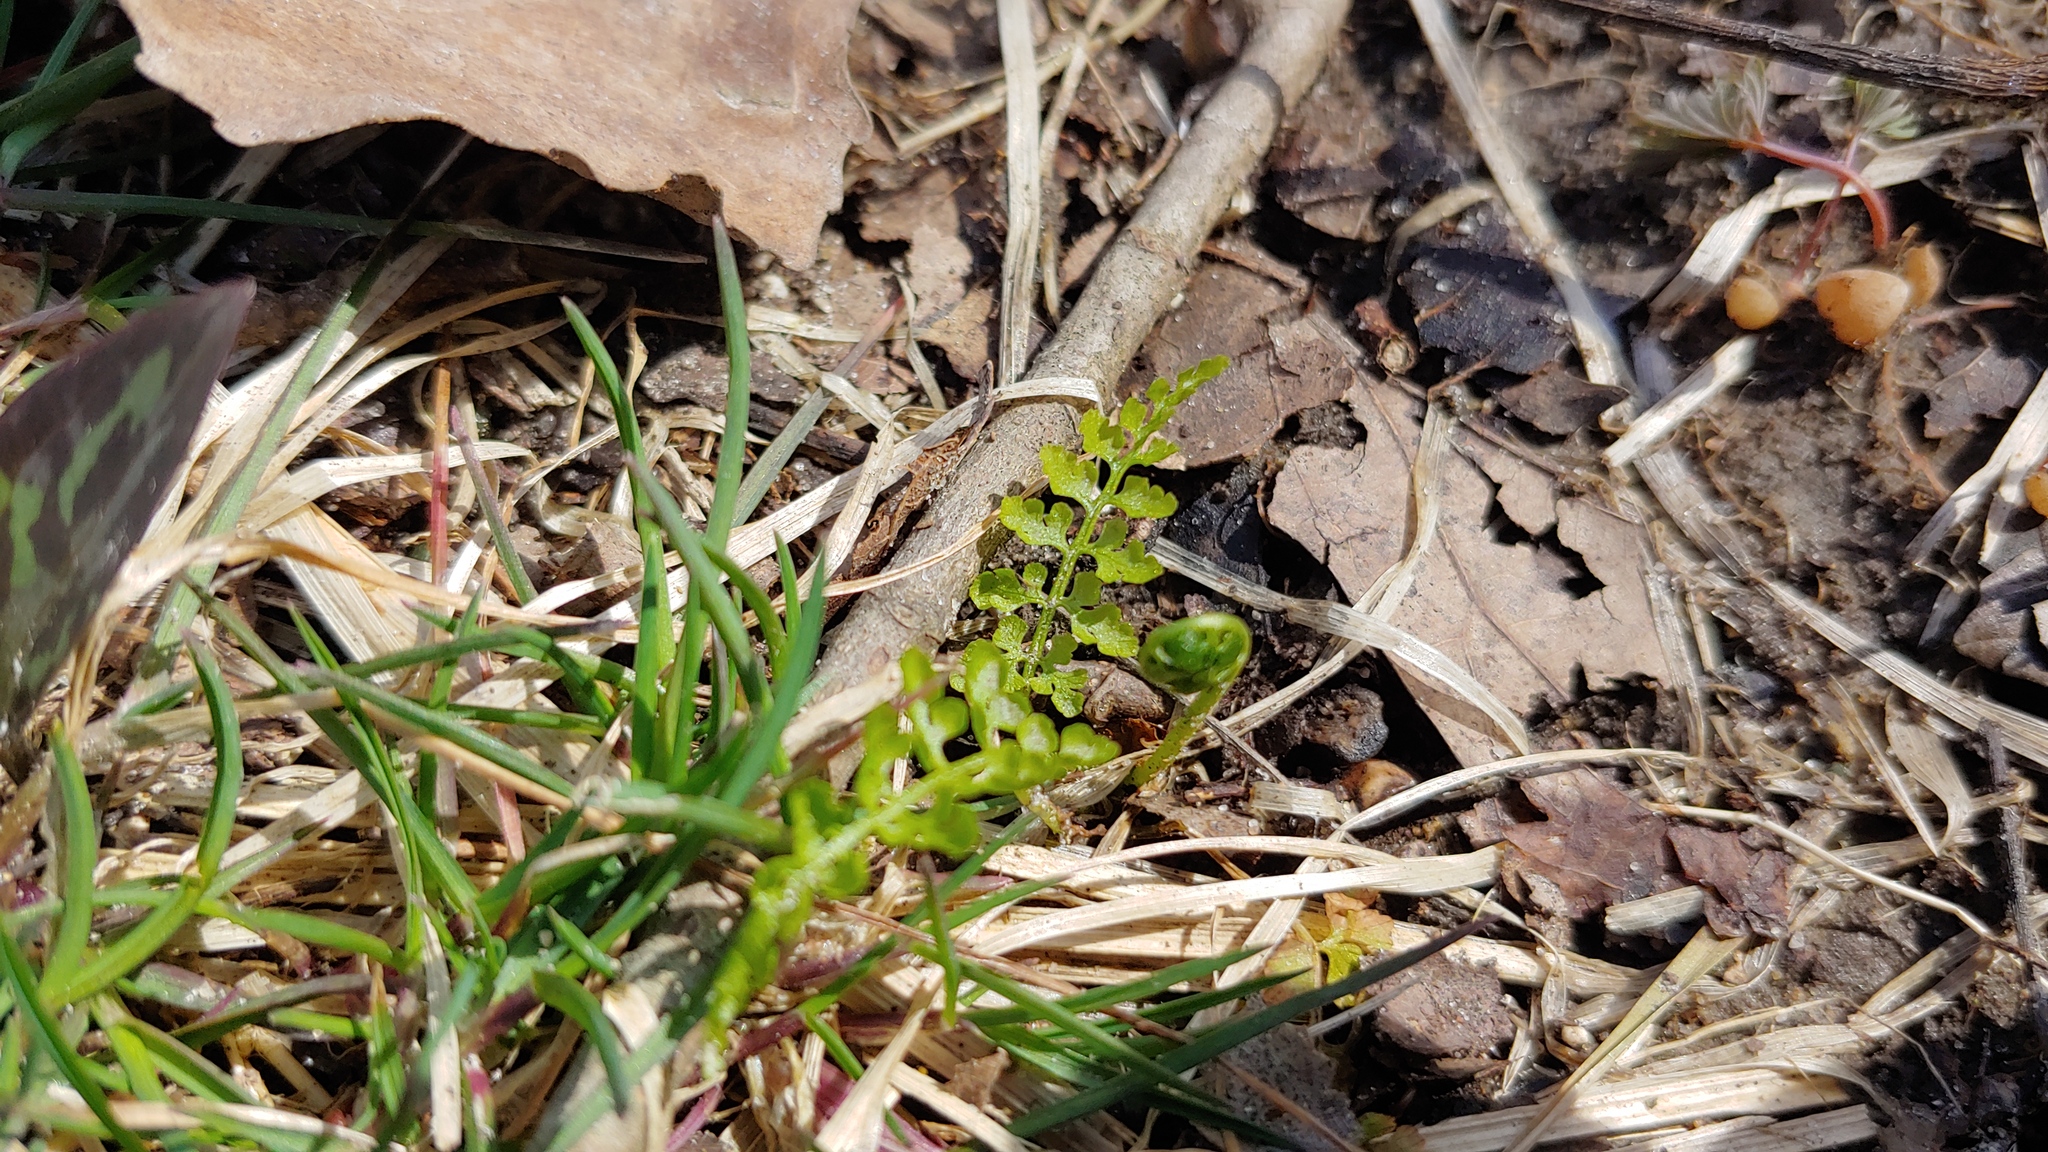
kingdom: Plantae
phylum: Tracheophyta
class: Polypodiopsida
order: Polypodiales
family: Cystopteridaceae
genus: Cystopteris
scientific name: Cystopteris protrusa
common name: Lowland brittle fern
